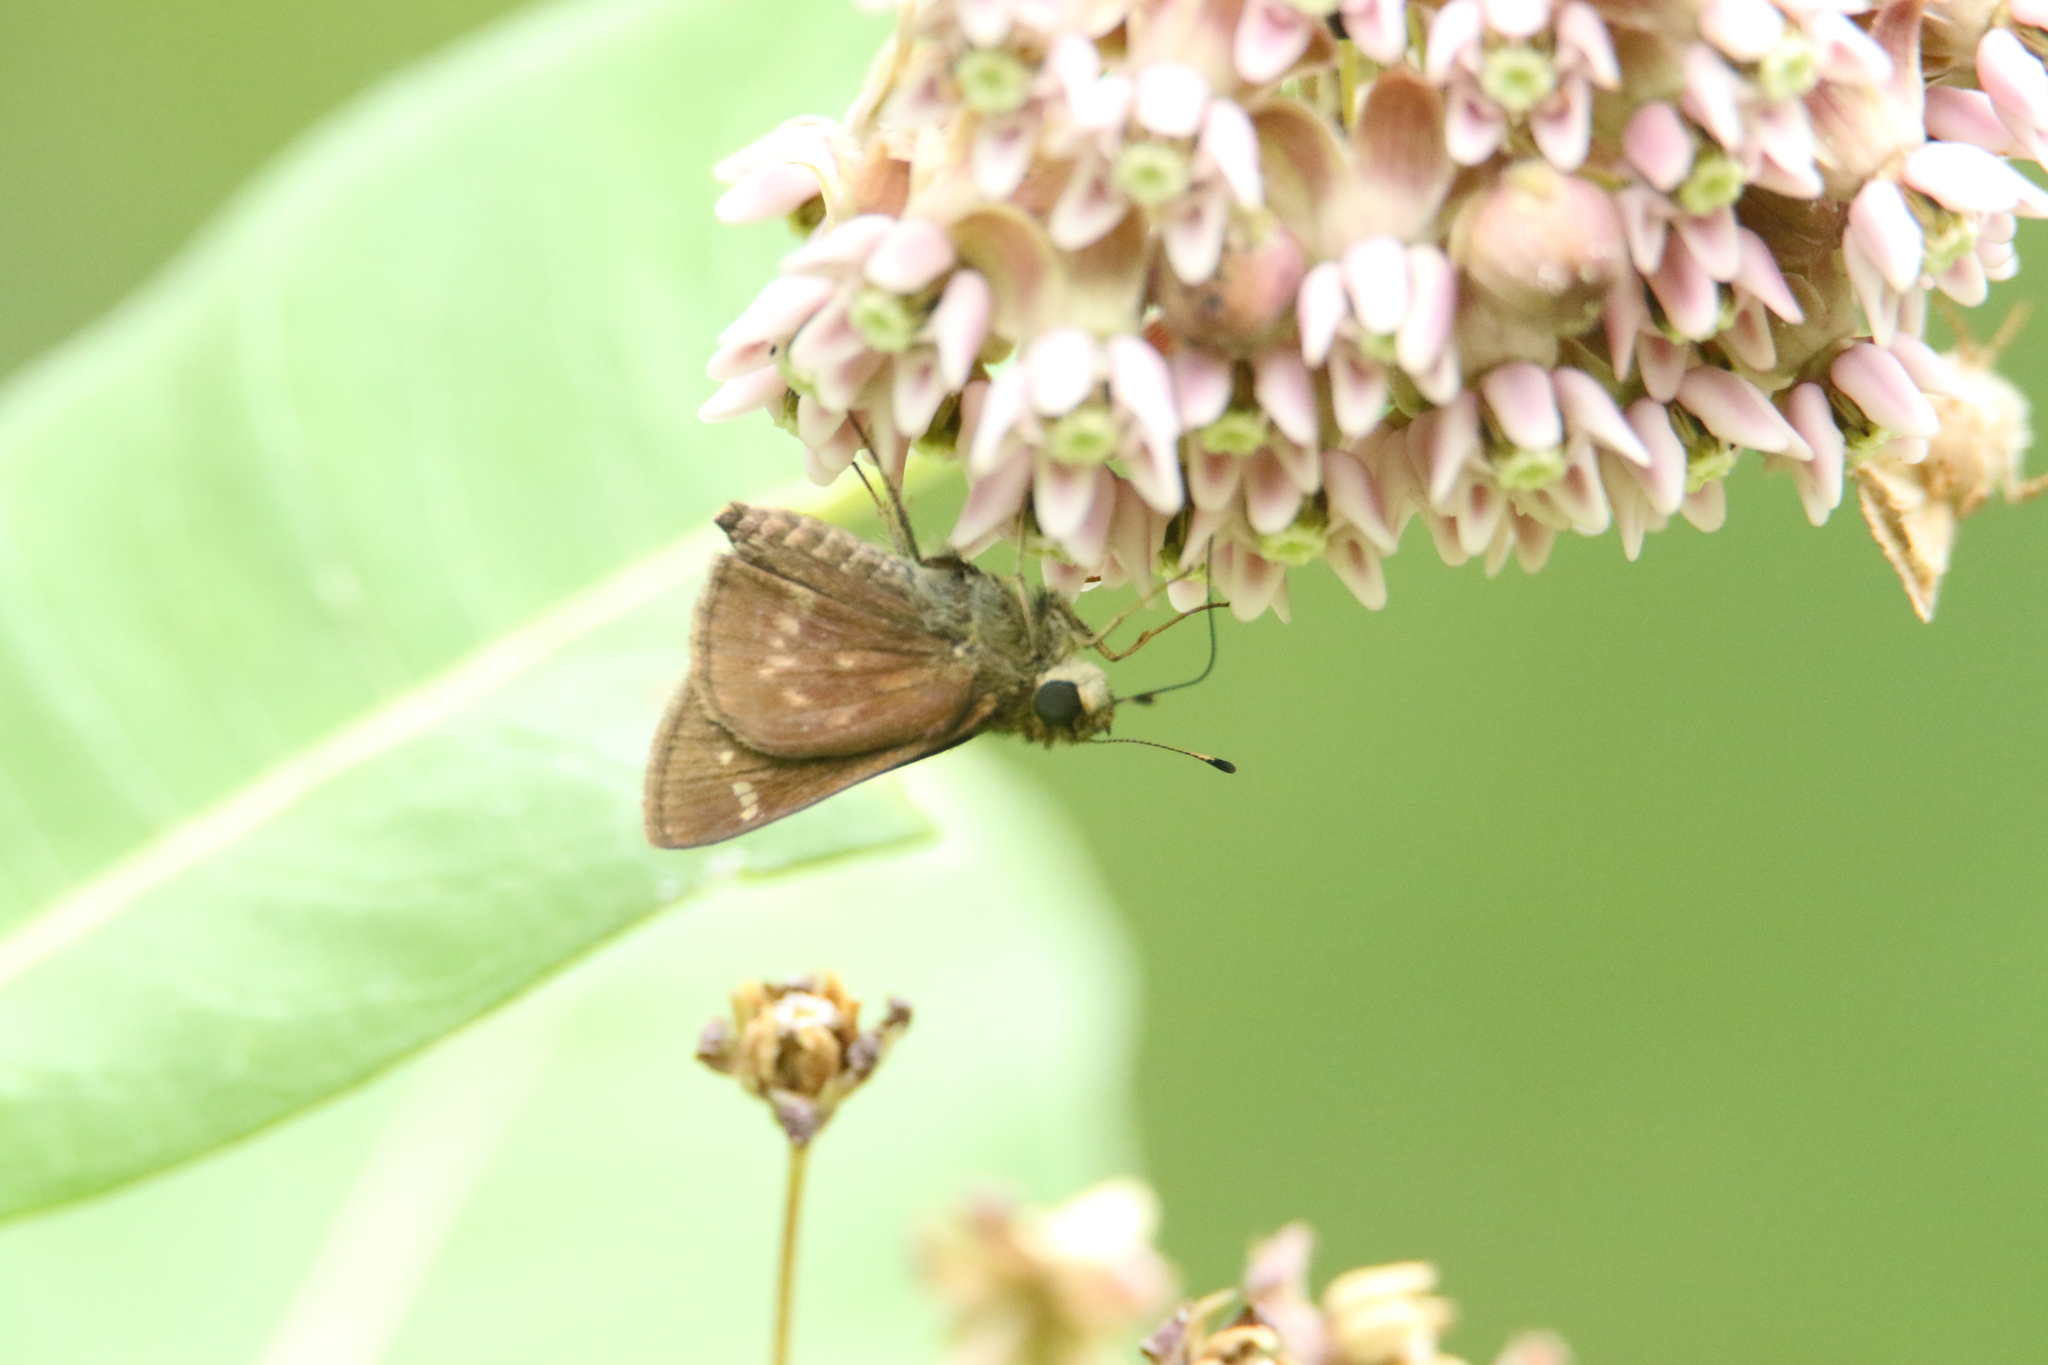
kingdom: Animalia
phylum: Arthropoda
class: Insecta
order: Lepidoptera
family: Hesperiidae
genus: Vernia
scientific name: Vernia verna
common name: Little glassywing
